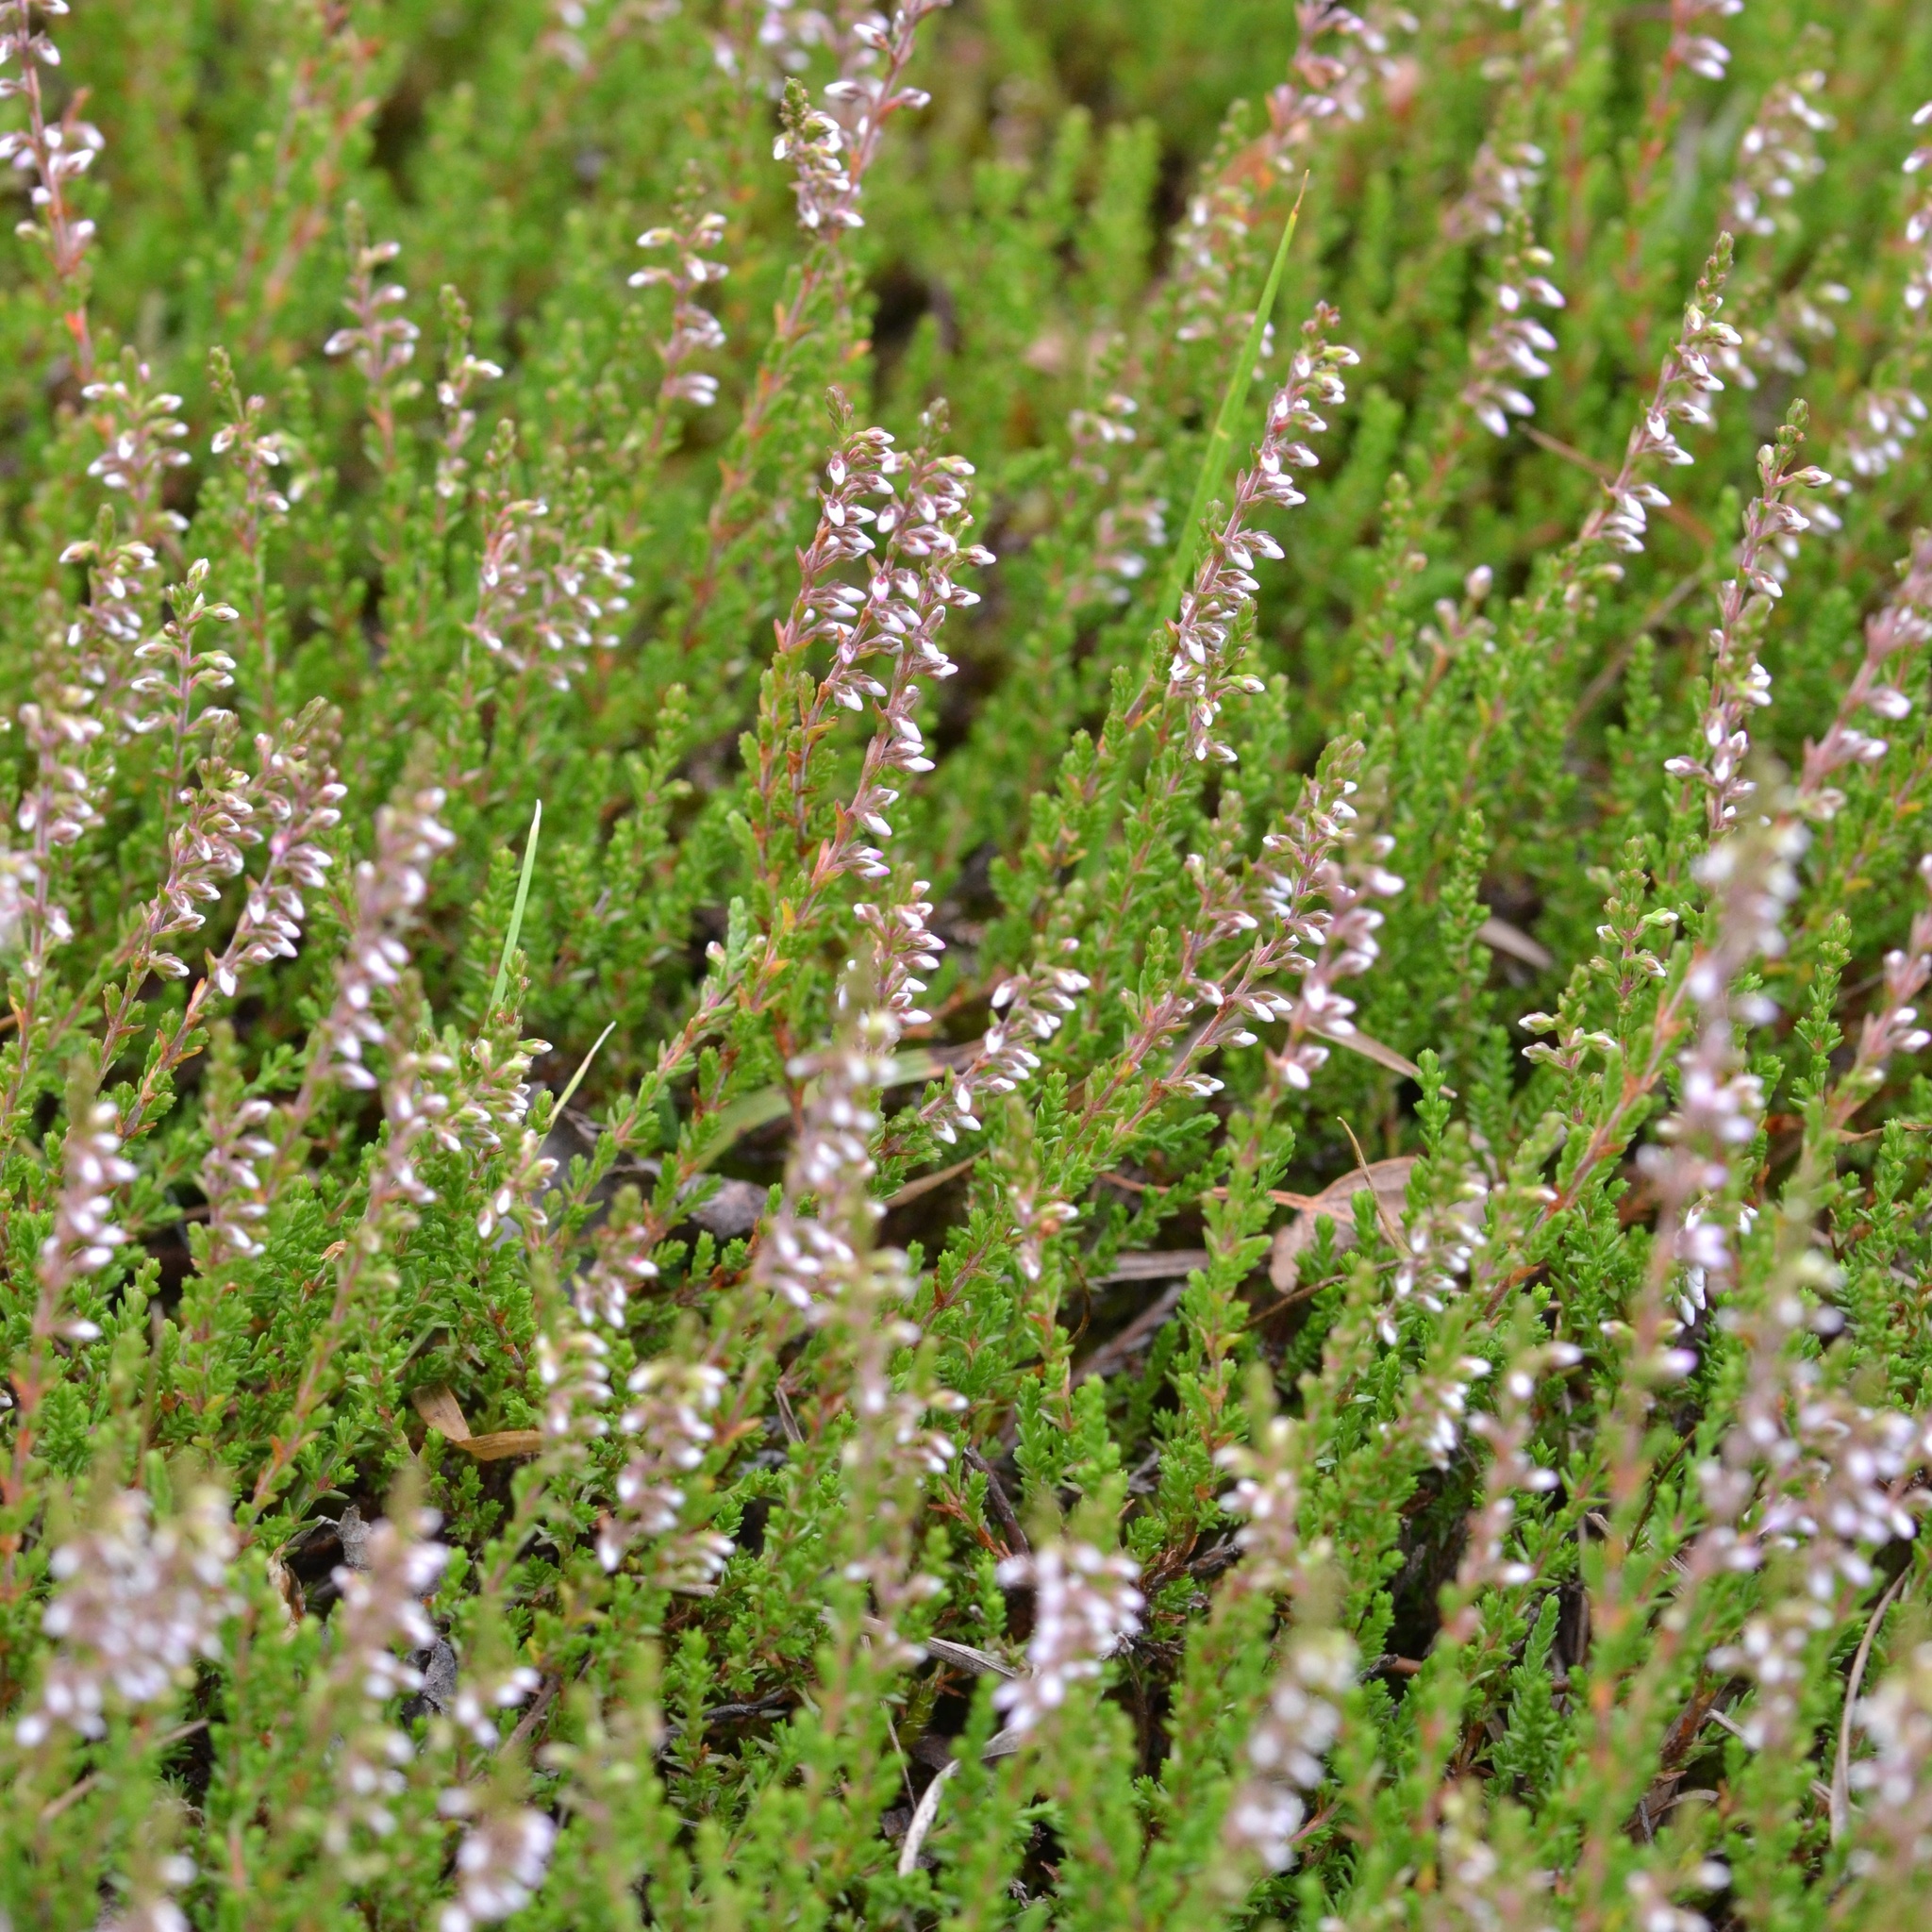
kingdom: Plantae
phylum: Tracheophyta
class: Magnoliopsida
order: Ericales
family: Ericaceae
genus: Calluna
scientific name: Calluna vulgaris
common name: Heather
